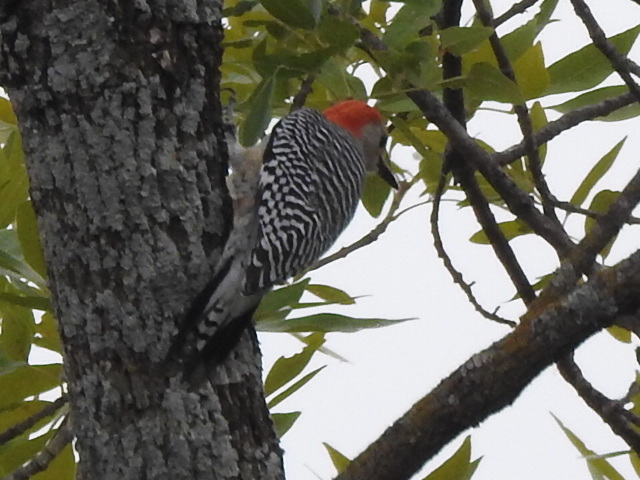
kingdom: Animalia
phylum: Chordata
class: Aves
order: Piciformes
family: Picidae
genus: Melanerpes
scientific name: Melanerpes carolinus
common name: Red-bellied woodpecker
